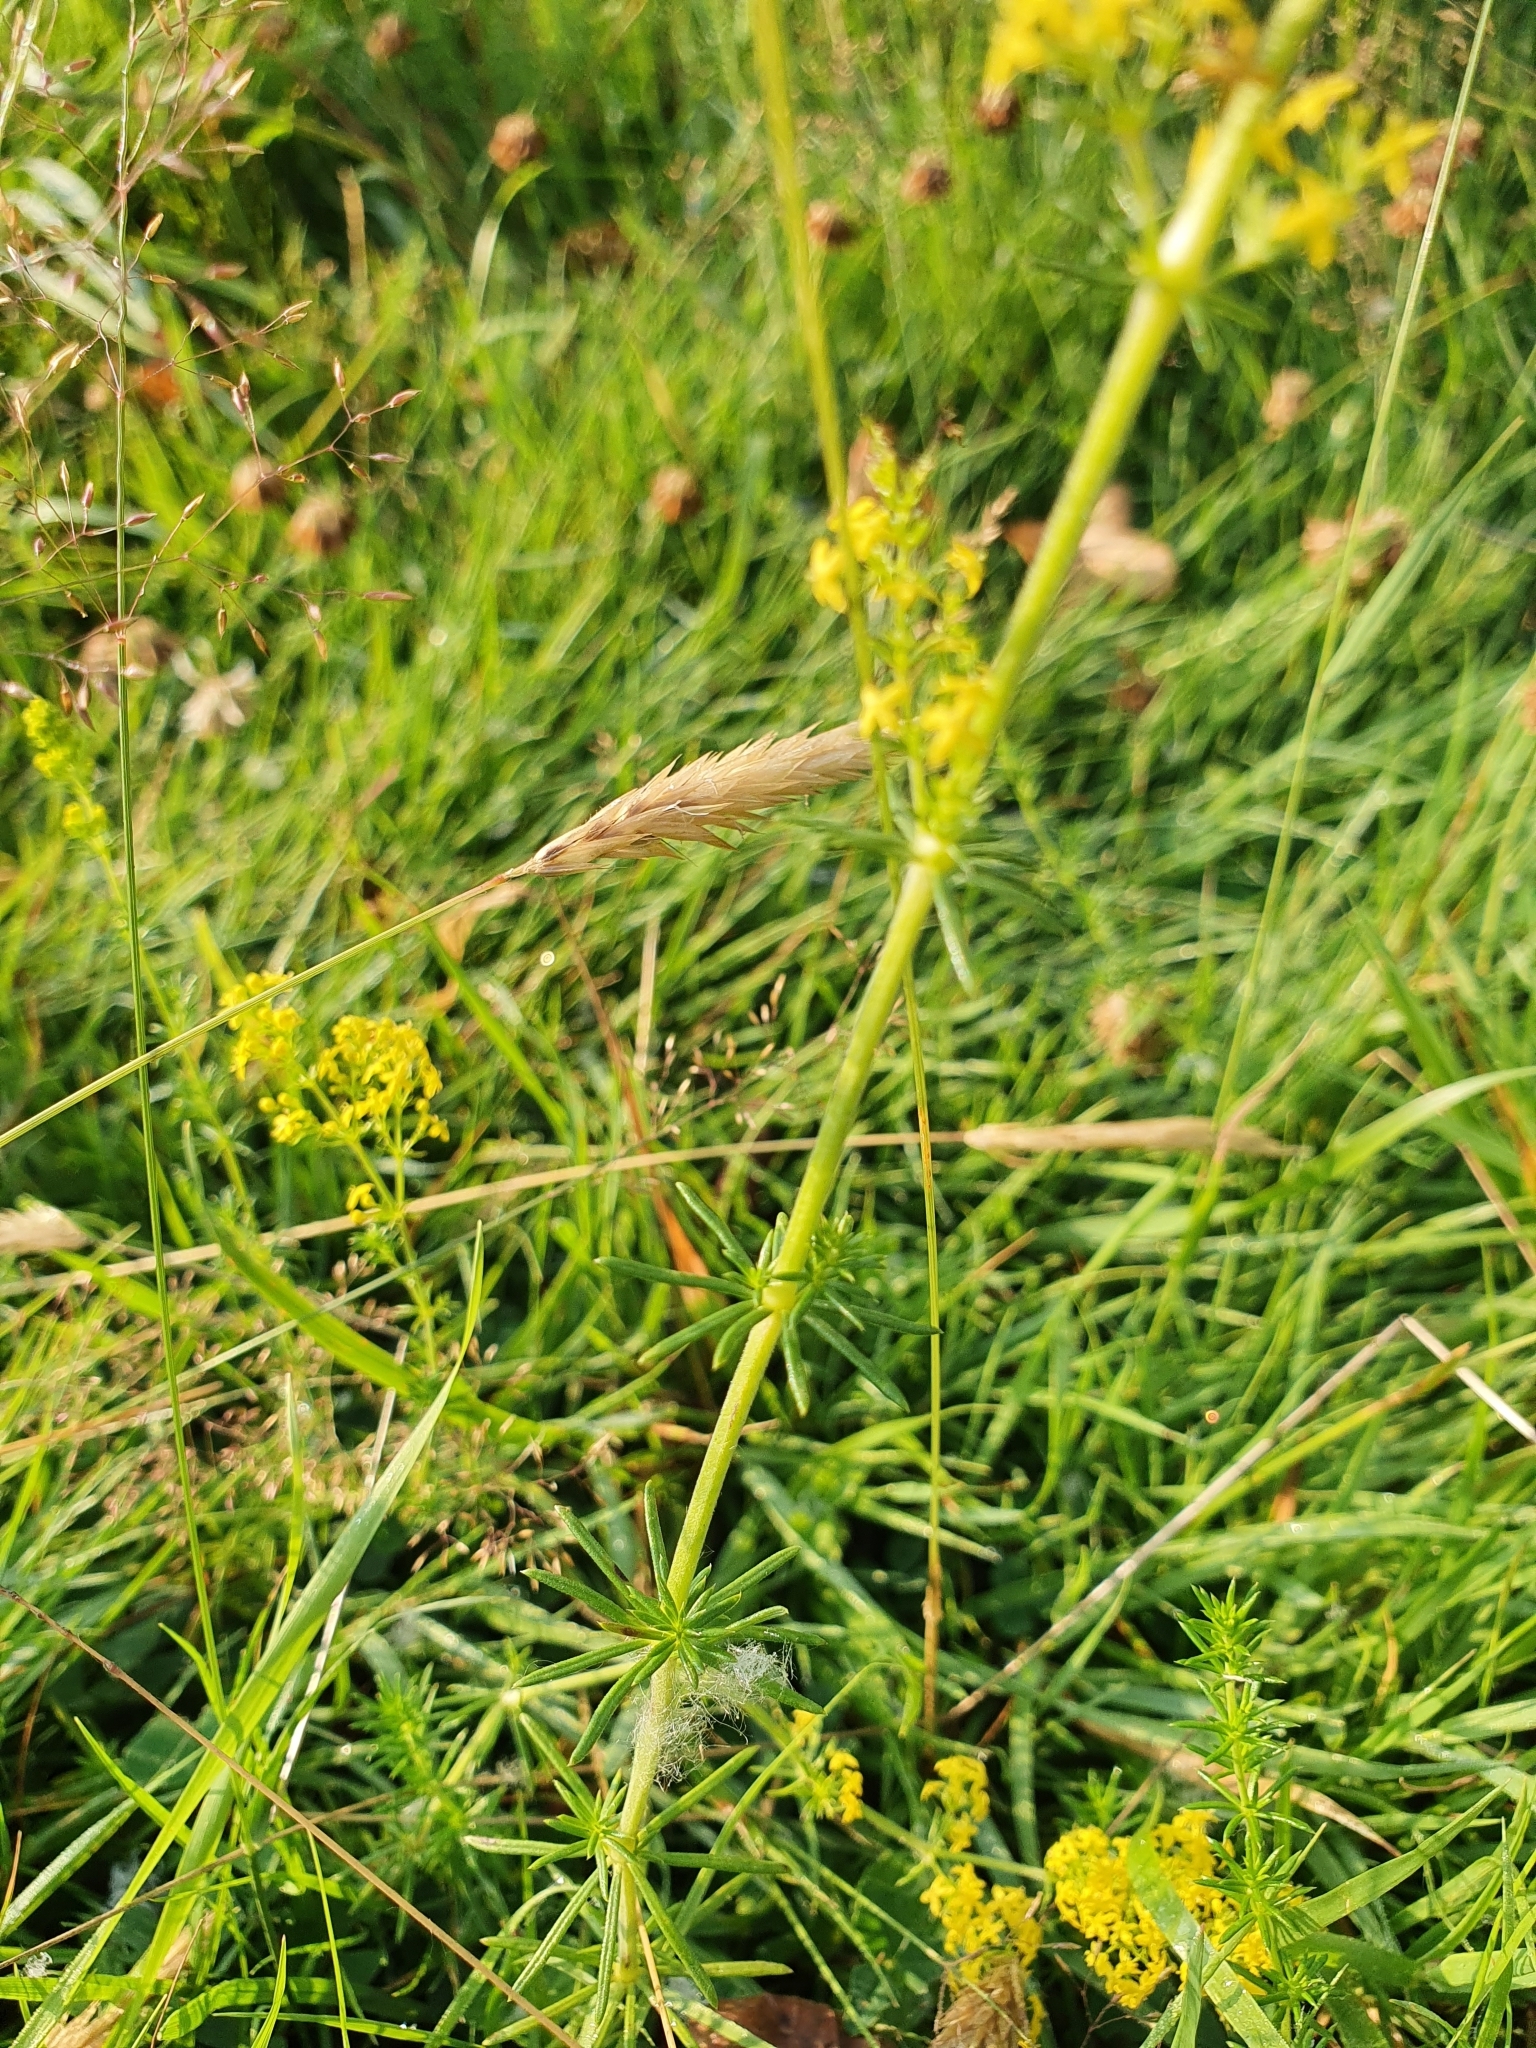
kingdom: Plantae
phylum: Tracheophyta
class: Magnoliopsida
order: Gentianales
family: Rubiaceae
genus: Galium
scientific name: Galium verum
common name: Lady's bedstraw
